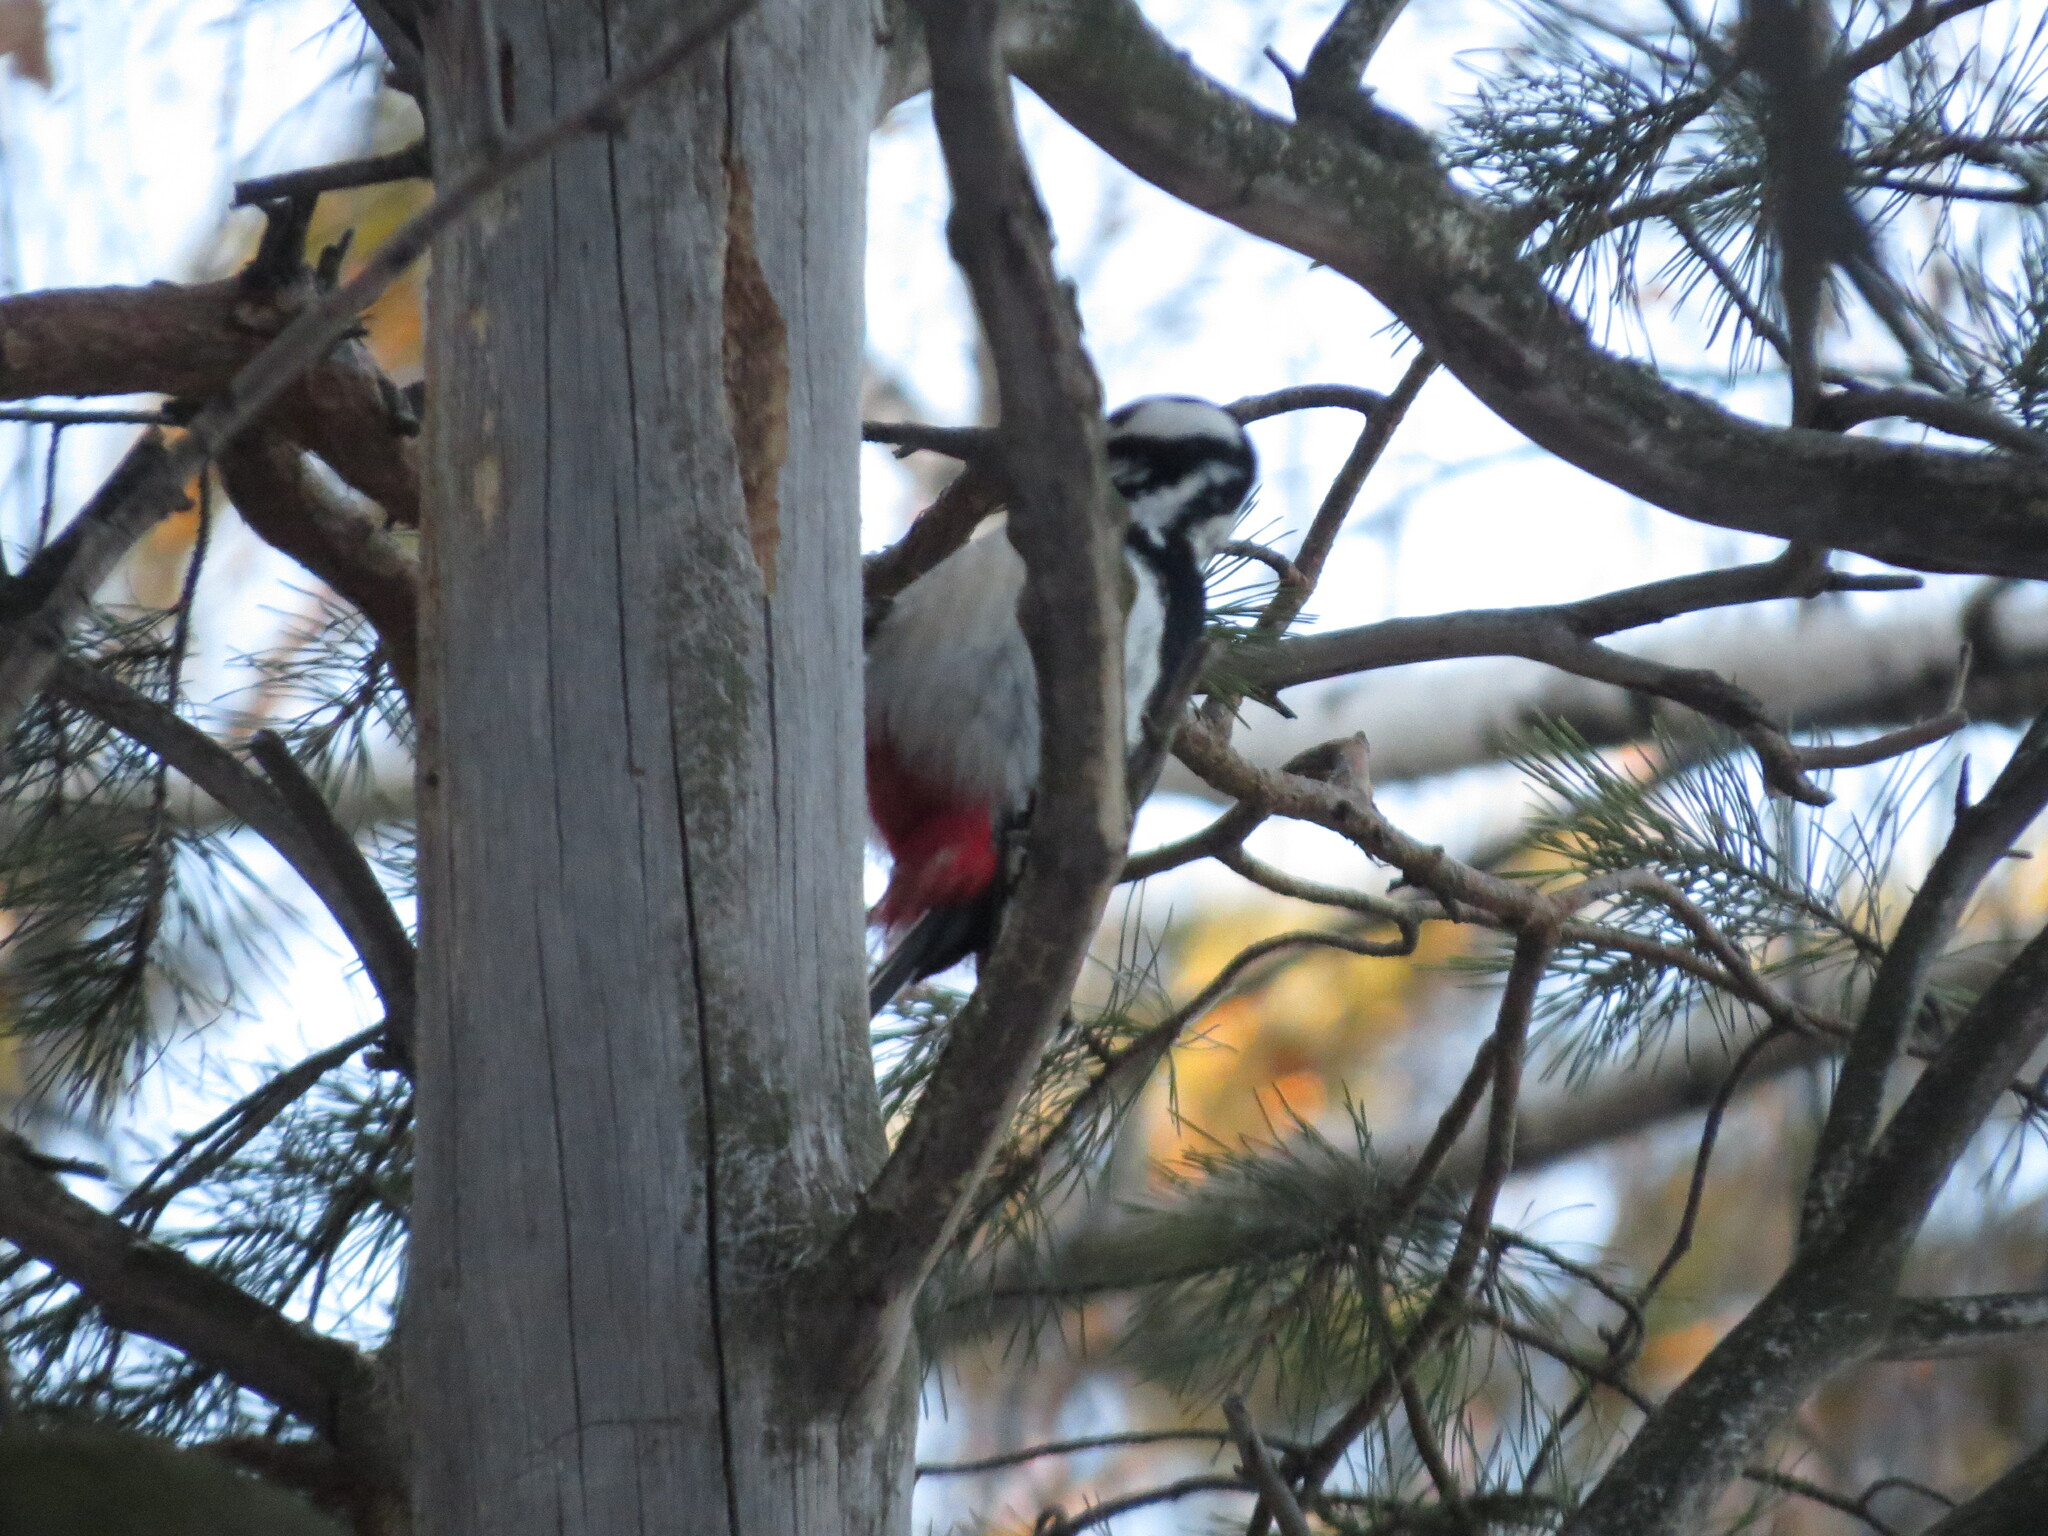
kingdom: Animalia
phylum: Chordata
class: Aves
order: Piciformes
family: Picidae
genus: Dendrocopos
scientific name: Dendrocopos major
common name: Great spotted woodpecker
